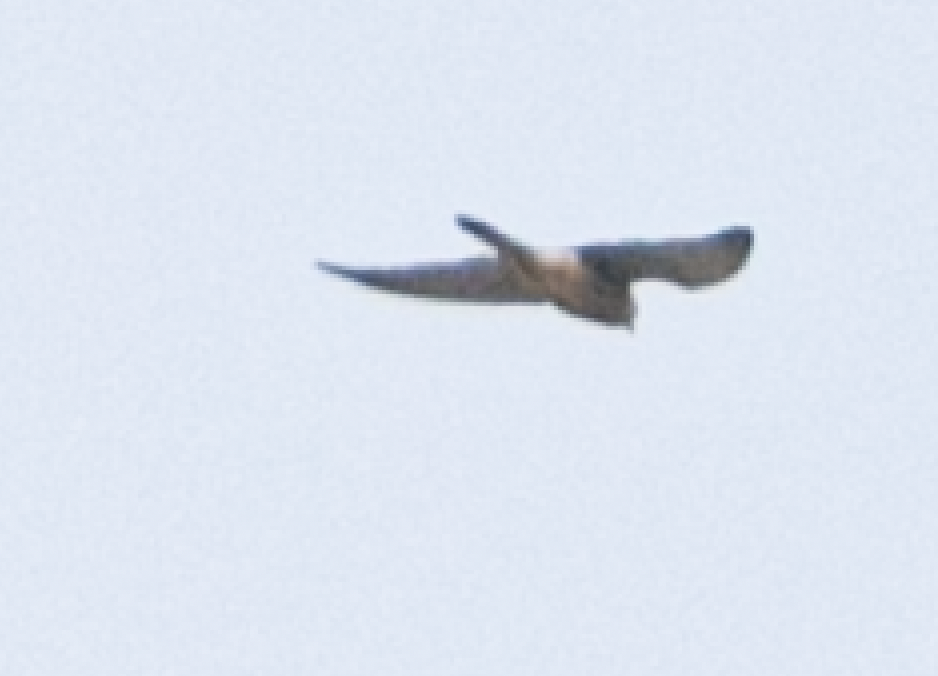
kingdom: Animalia
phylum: Chordata
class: Aves
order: Falconiformes
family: Falconidae
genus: Falco
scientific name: Falco tinnunculus
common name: Common kestrel
